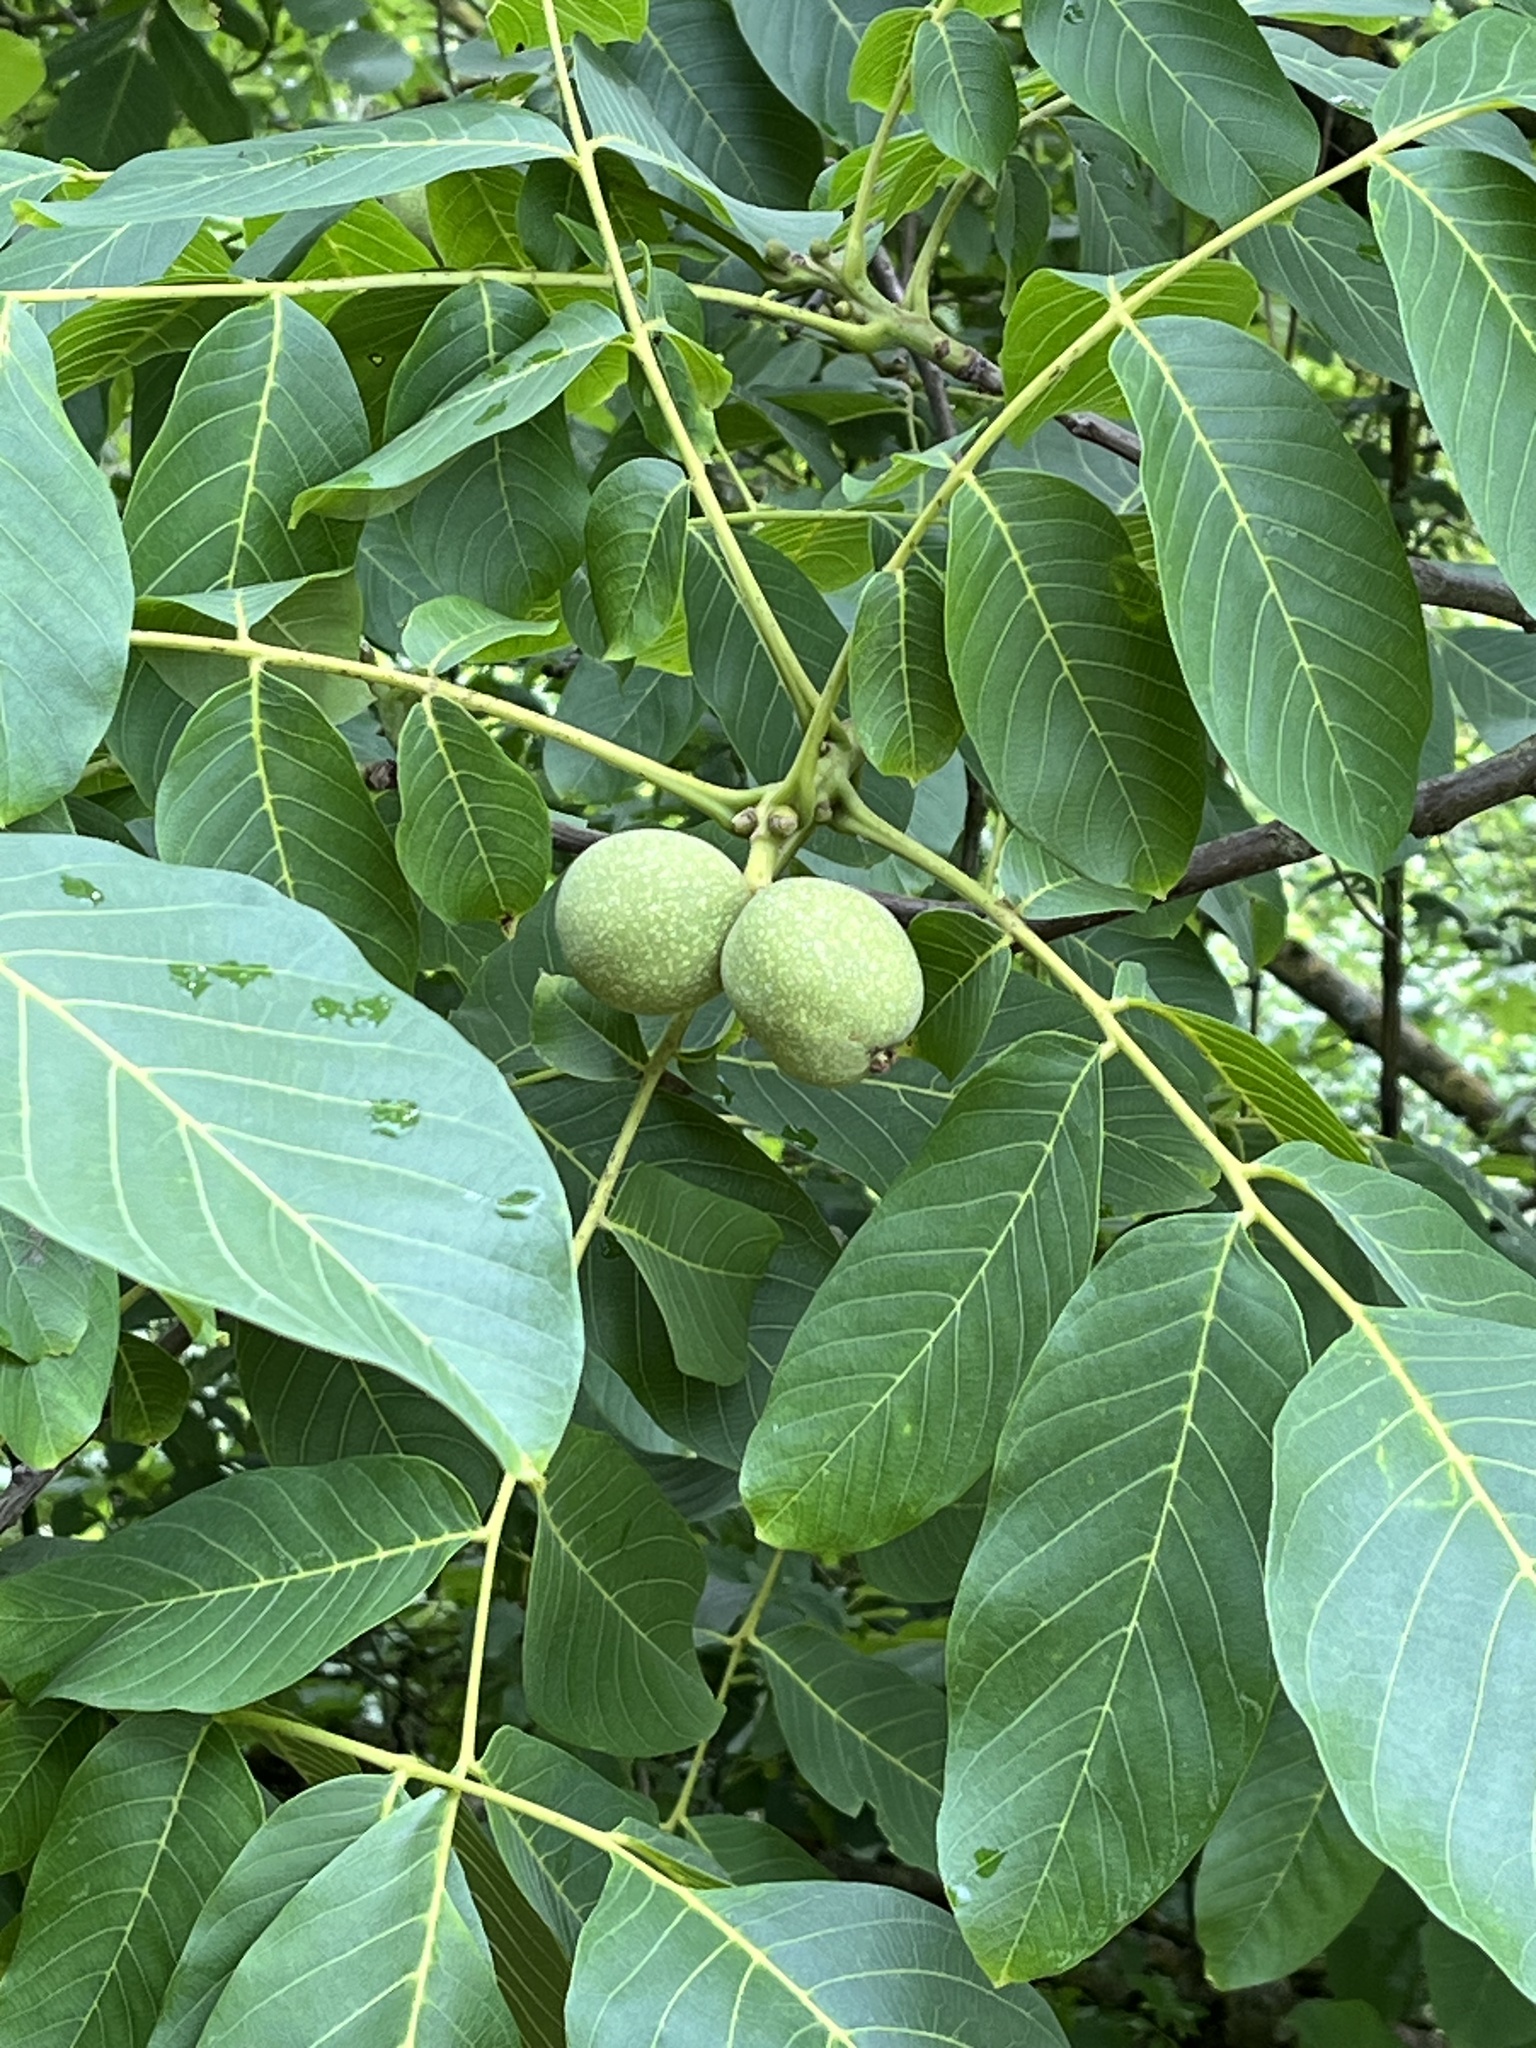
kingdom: Plantae
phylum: Tracheophyta
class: Magnoliopsida
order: Fagales
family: Juglandaceae
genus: Juglans
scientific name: Juglans regia
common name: Walnut
